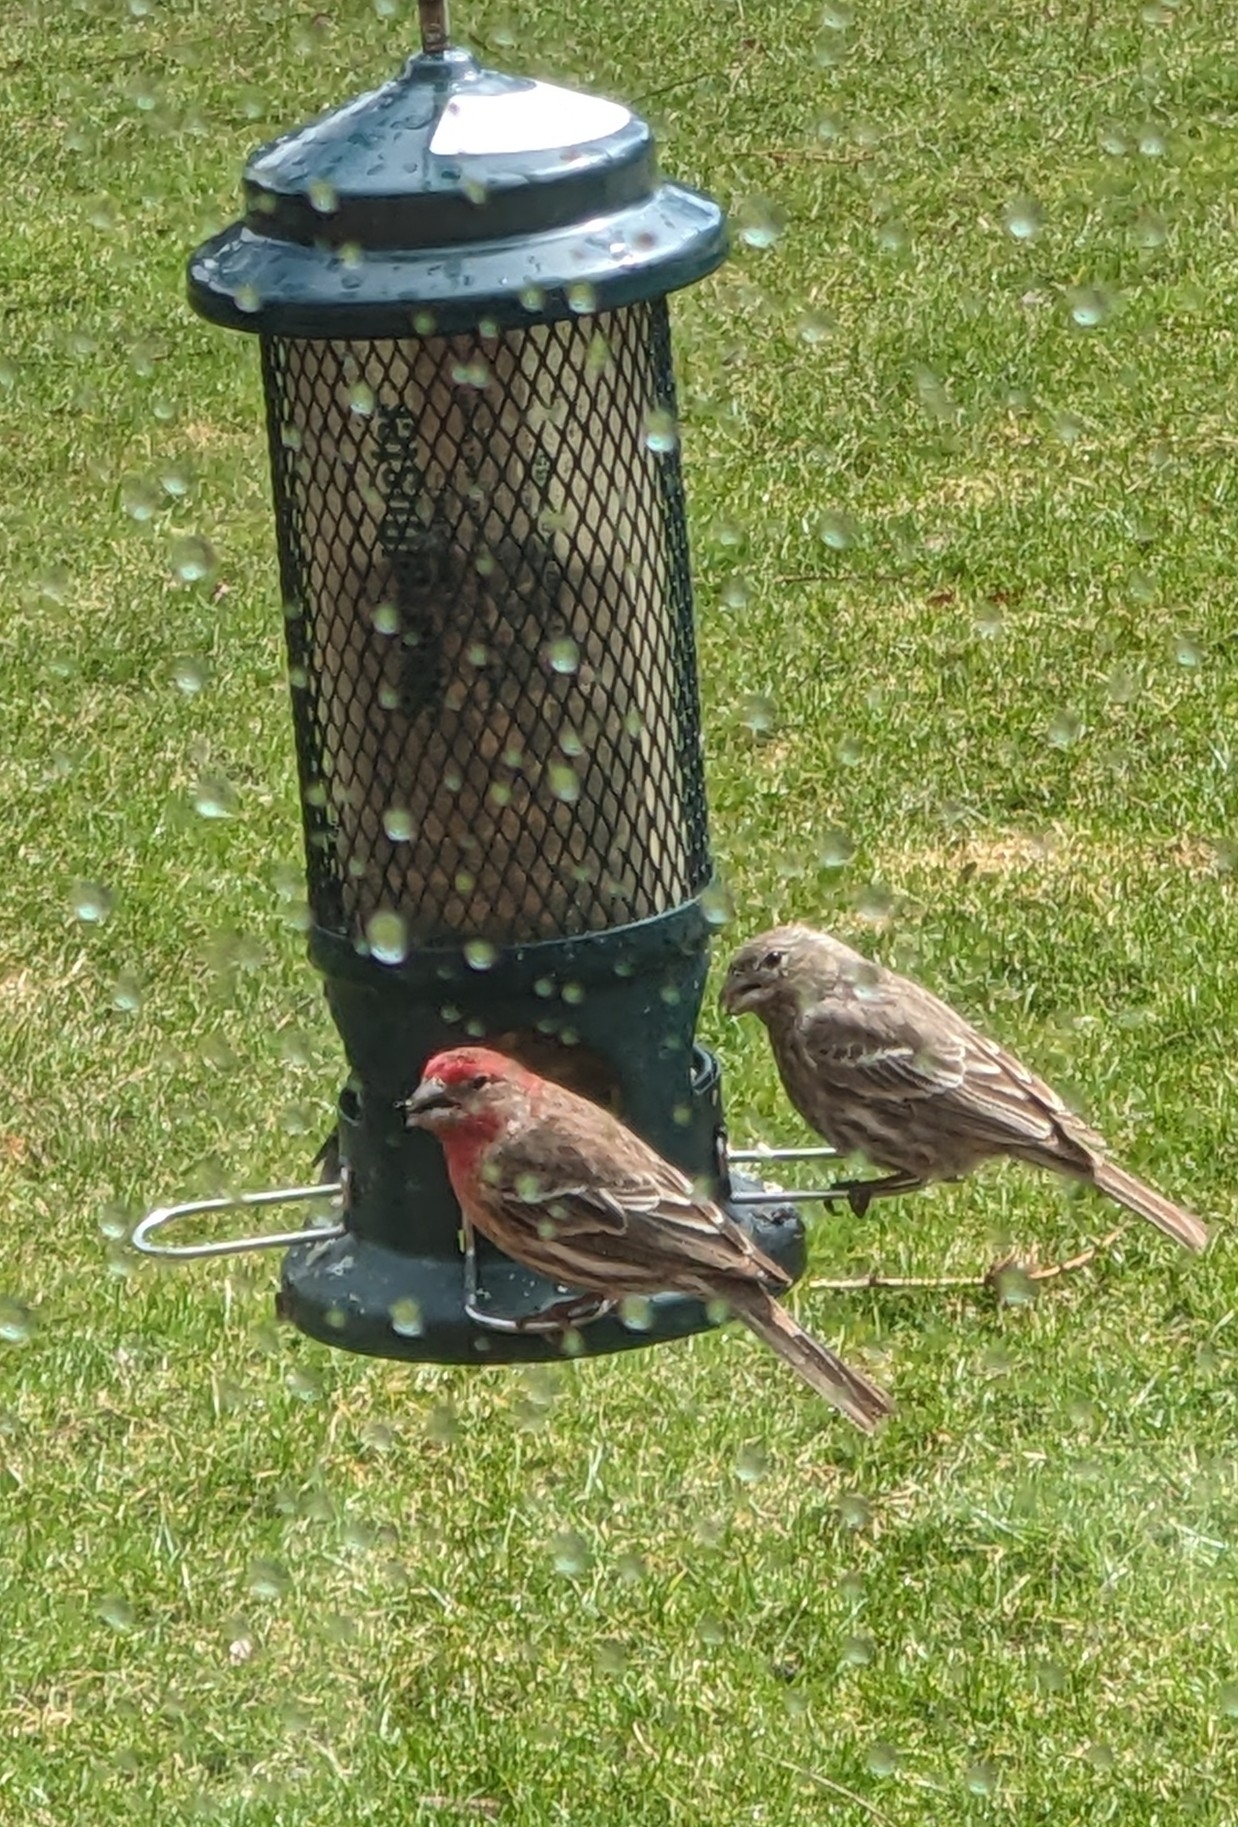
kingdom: Animalia
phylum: Chordata
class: Aves
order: Passeriformes
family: Fringillidae
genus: Haemorhous
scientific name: Haemorhous mexicanus
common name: House finch
